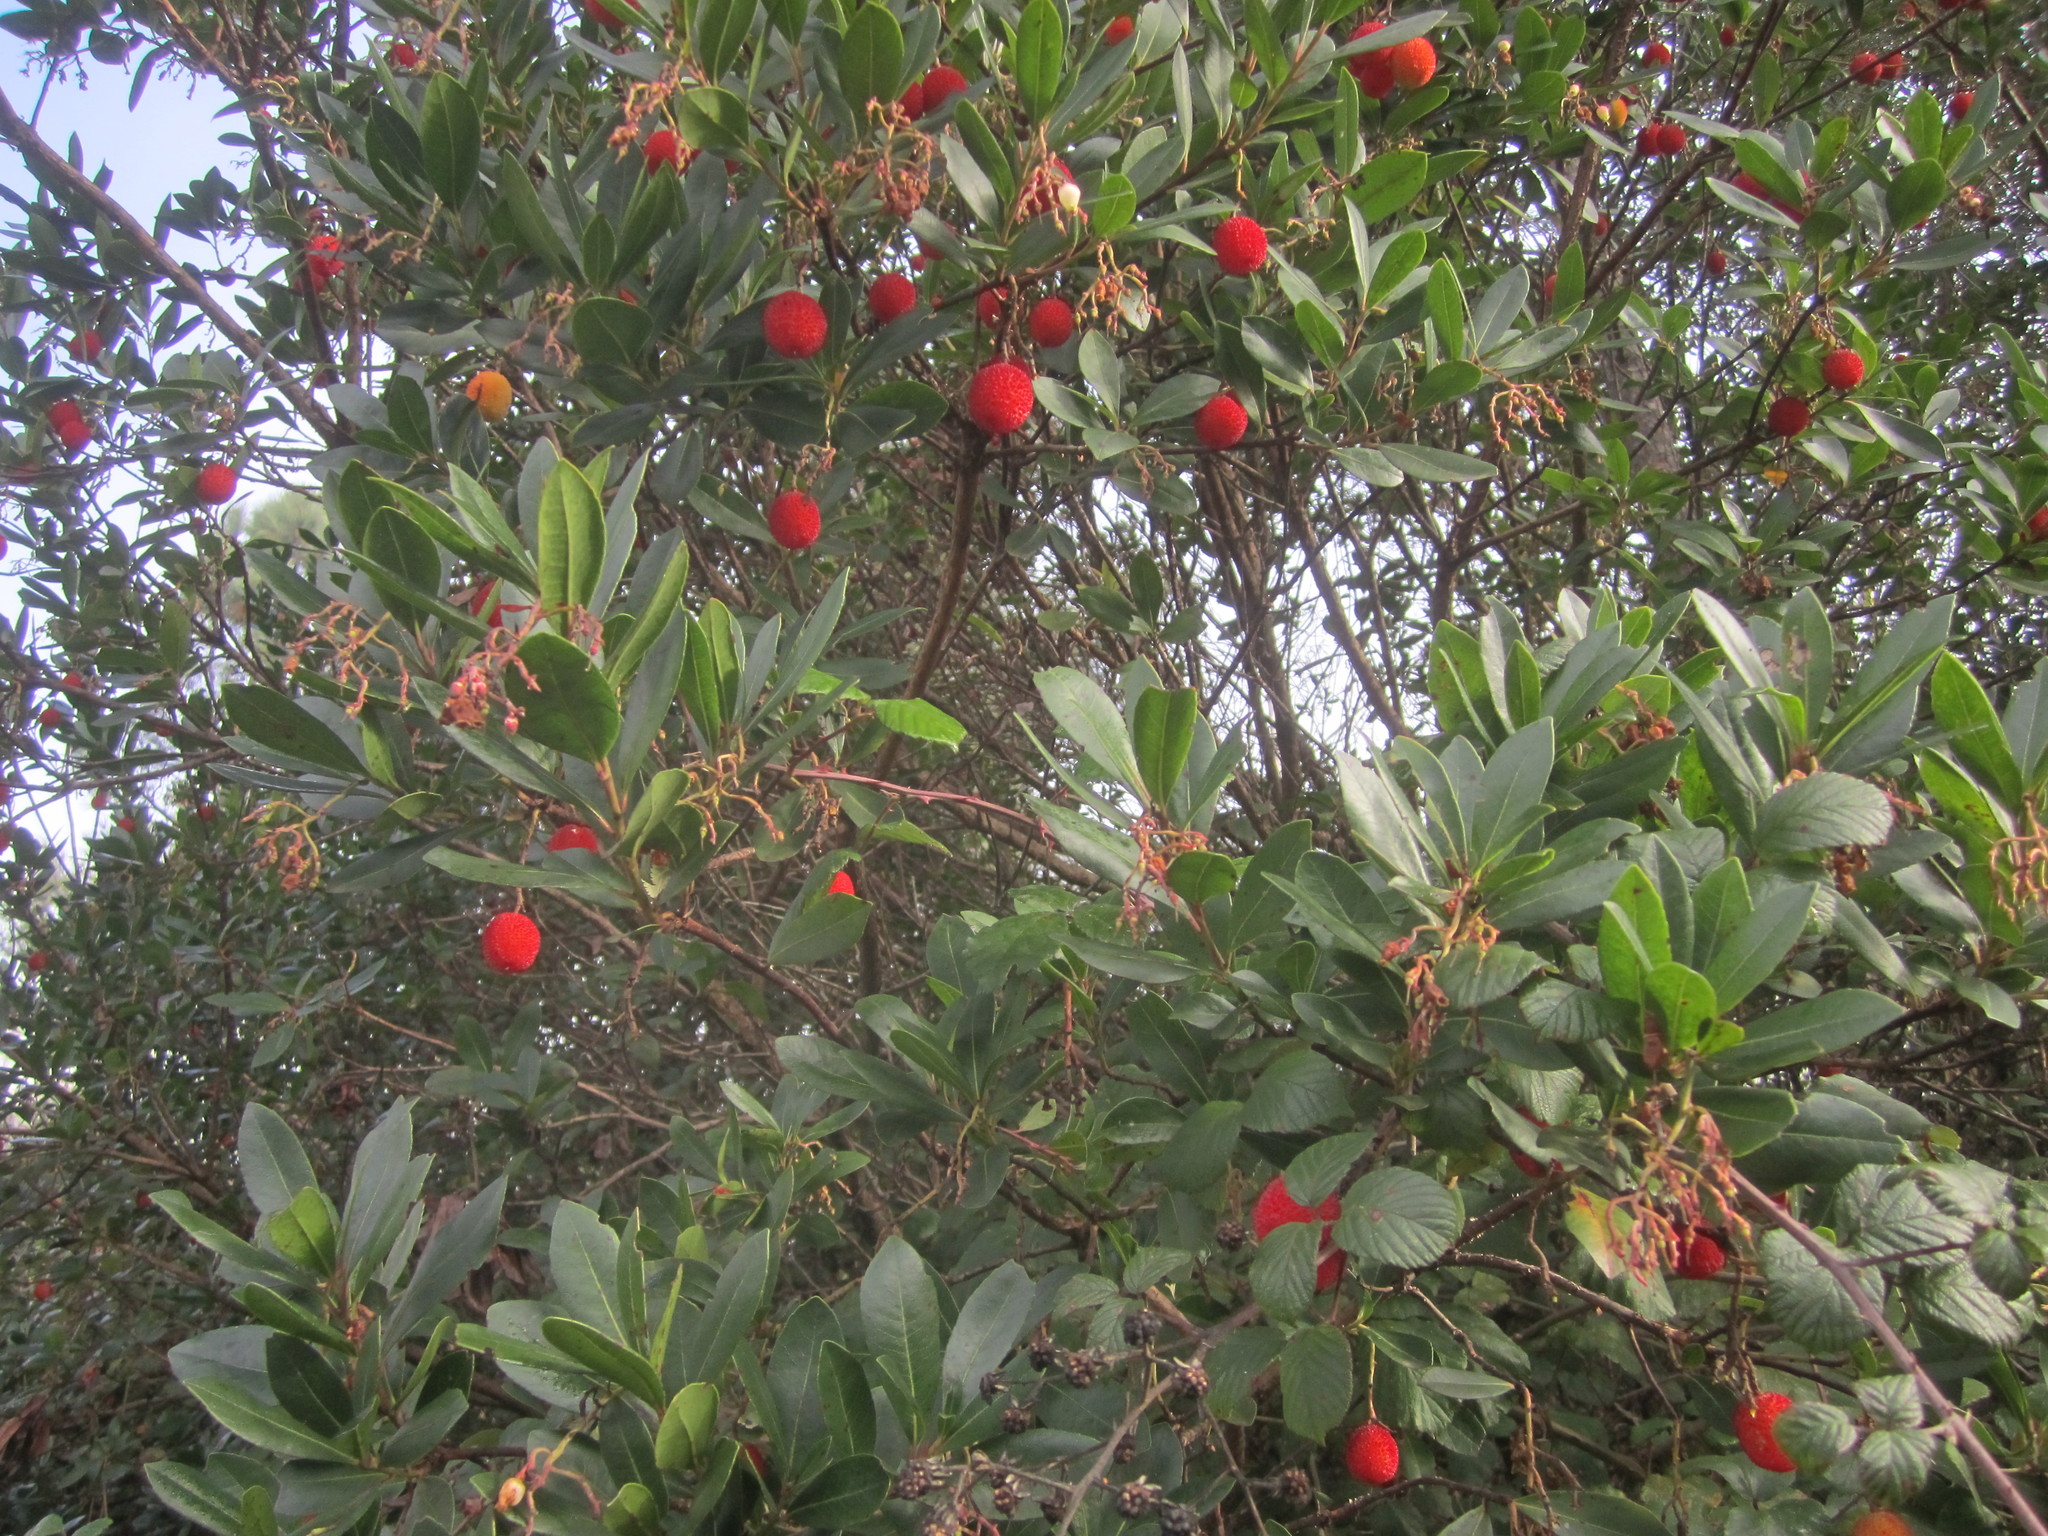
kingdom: Plantae
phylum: Tracheophyta
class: Magnoliopsida
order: Ericales
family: Ericaceae
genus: Arbutus
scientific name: Arbutus unedo
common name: Strawberry-tree
